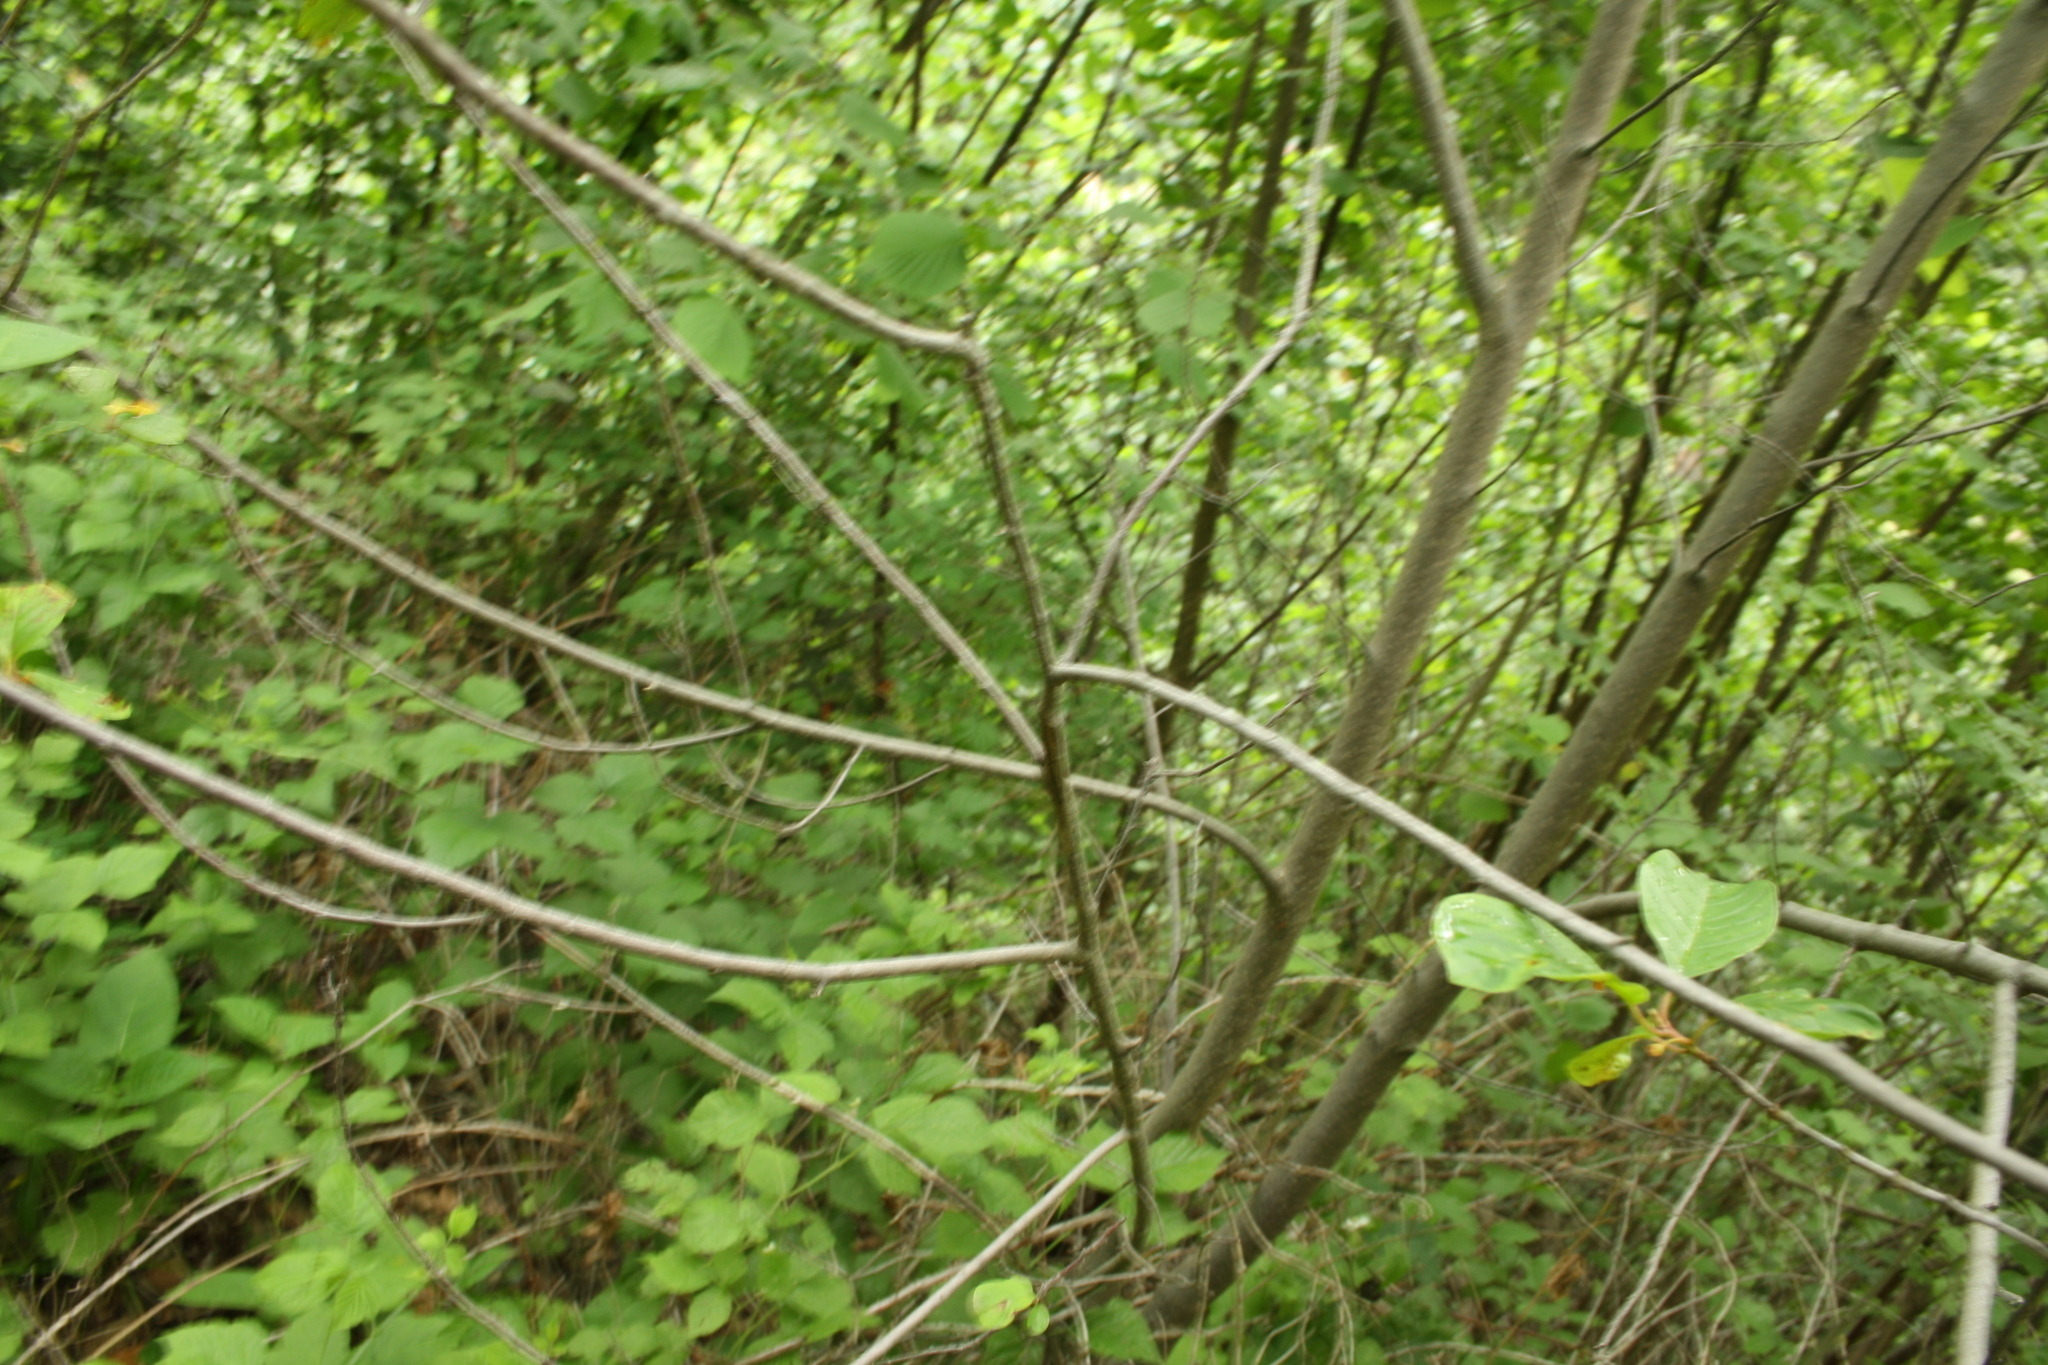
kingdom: Plantae
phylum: Tracheophyta
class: Magnoliopsida
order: Rosales
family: Rhamnaceae
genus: Frangula
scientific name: Frangula alnus
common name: Alder buckthorn
